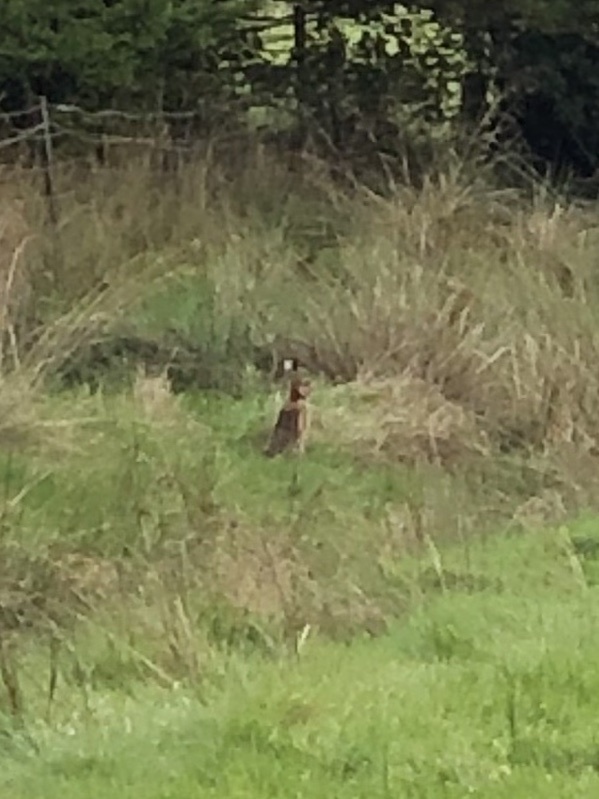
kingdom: Animalia
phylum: Chordata
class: Mammalia
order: Lagomorpha
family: Leporidae
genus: Lepus
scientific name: Lepus europaeus
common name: European hare
